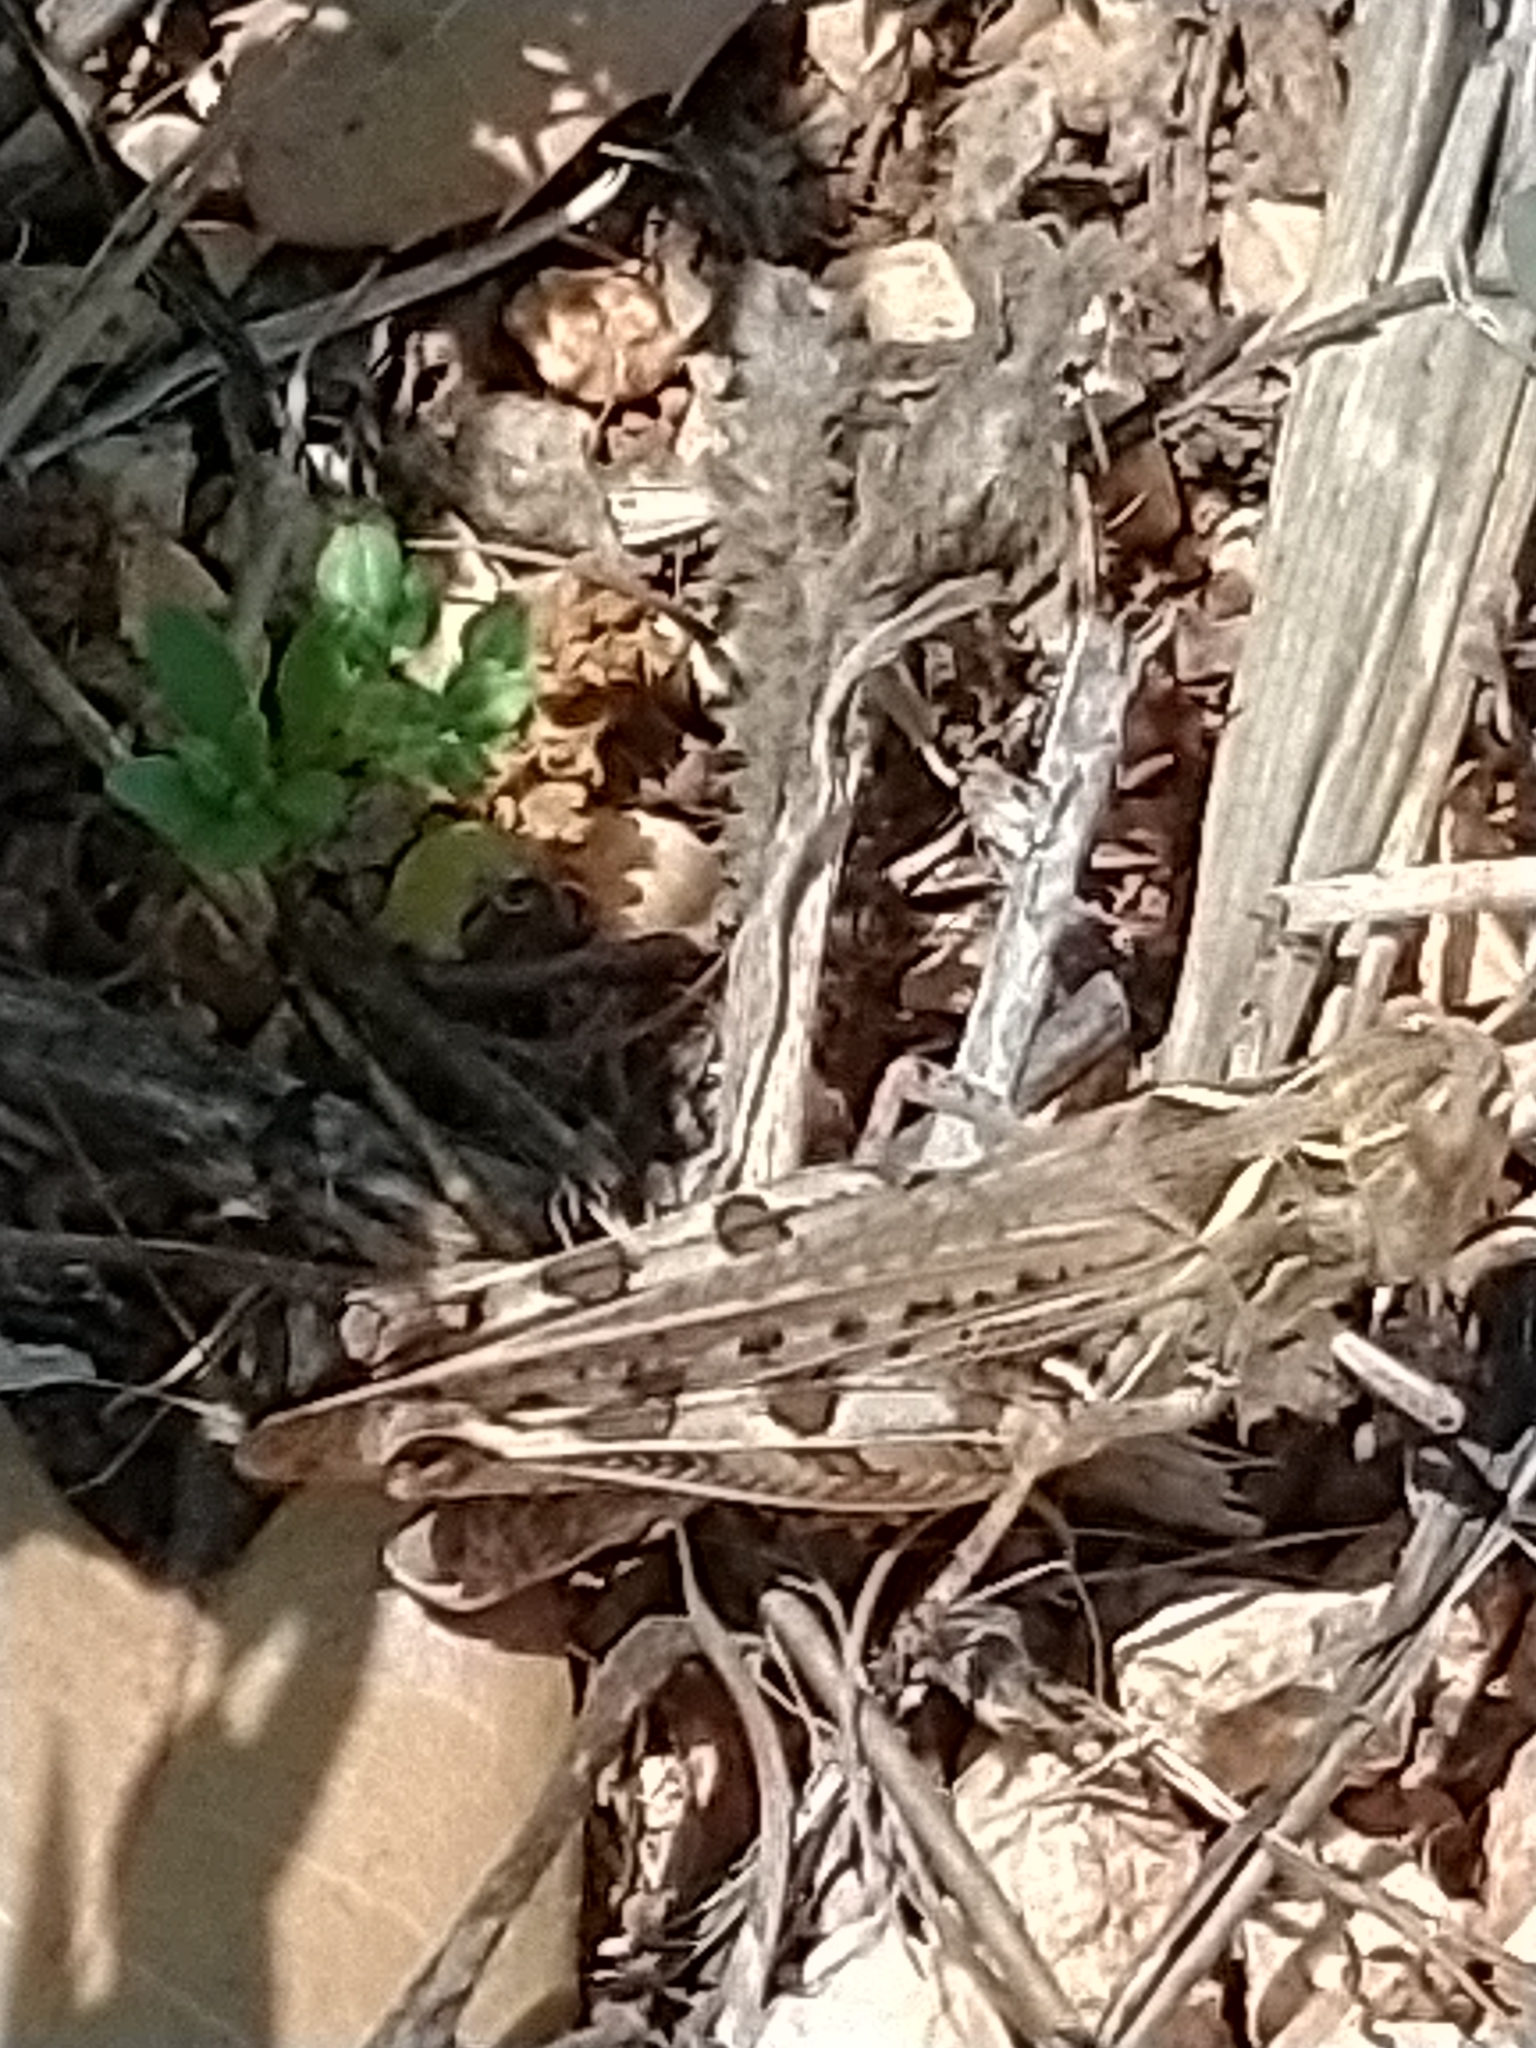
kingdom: Animalia
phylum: Arthropoda
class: Insecta
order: Orthoptera
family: Acrididae
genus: Dociostaurus
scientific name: Dociostaurus maroccanus
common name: Moroccan locust
